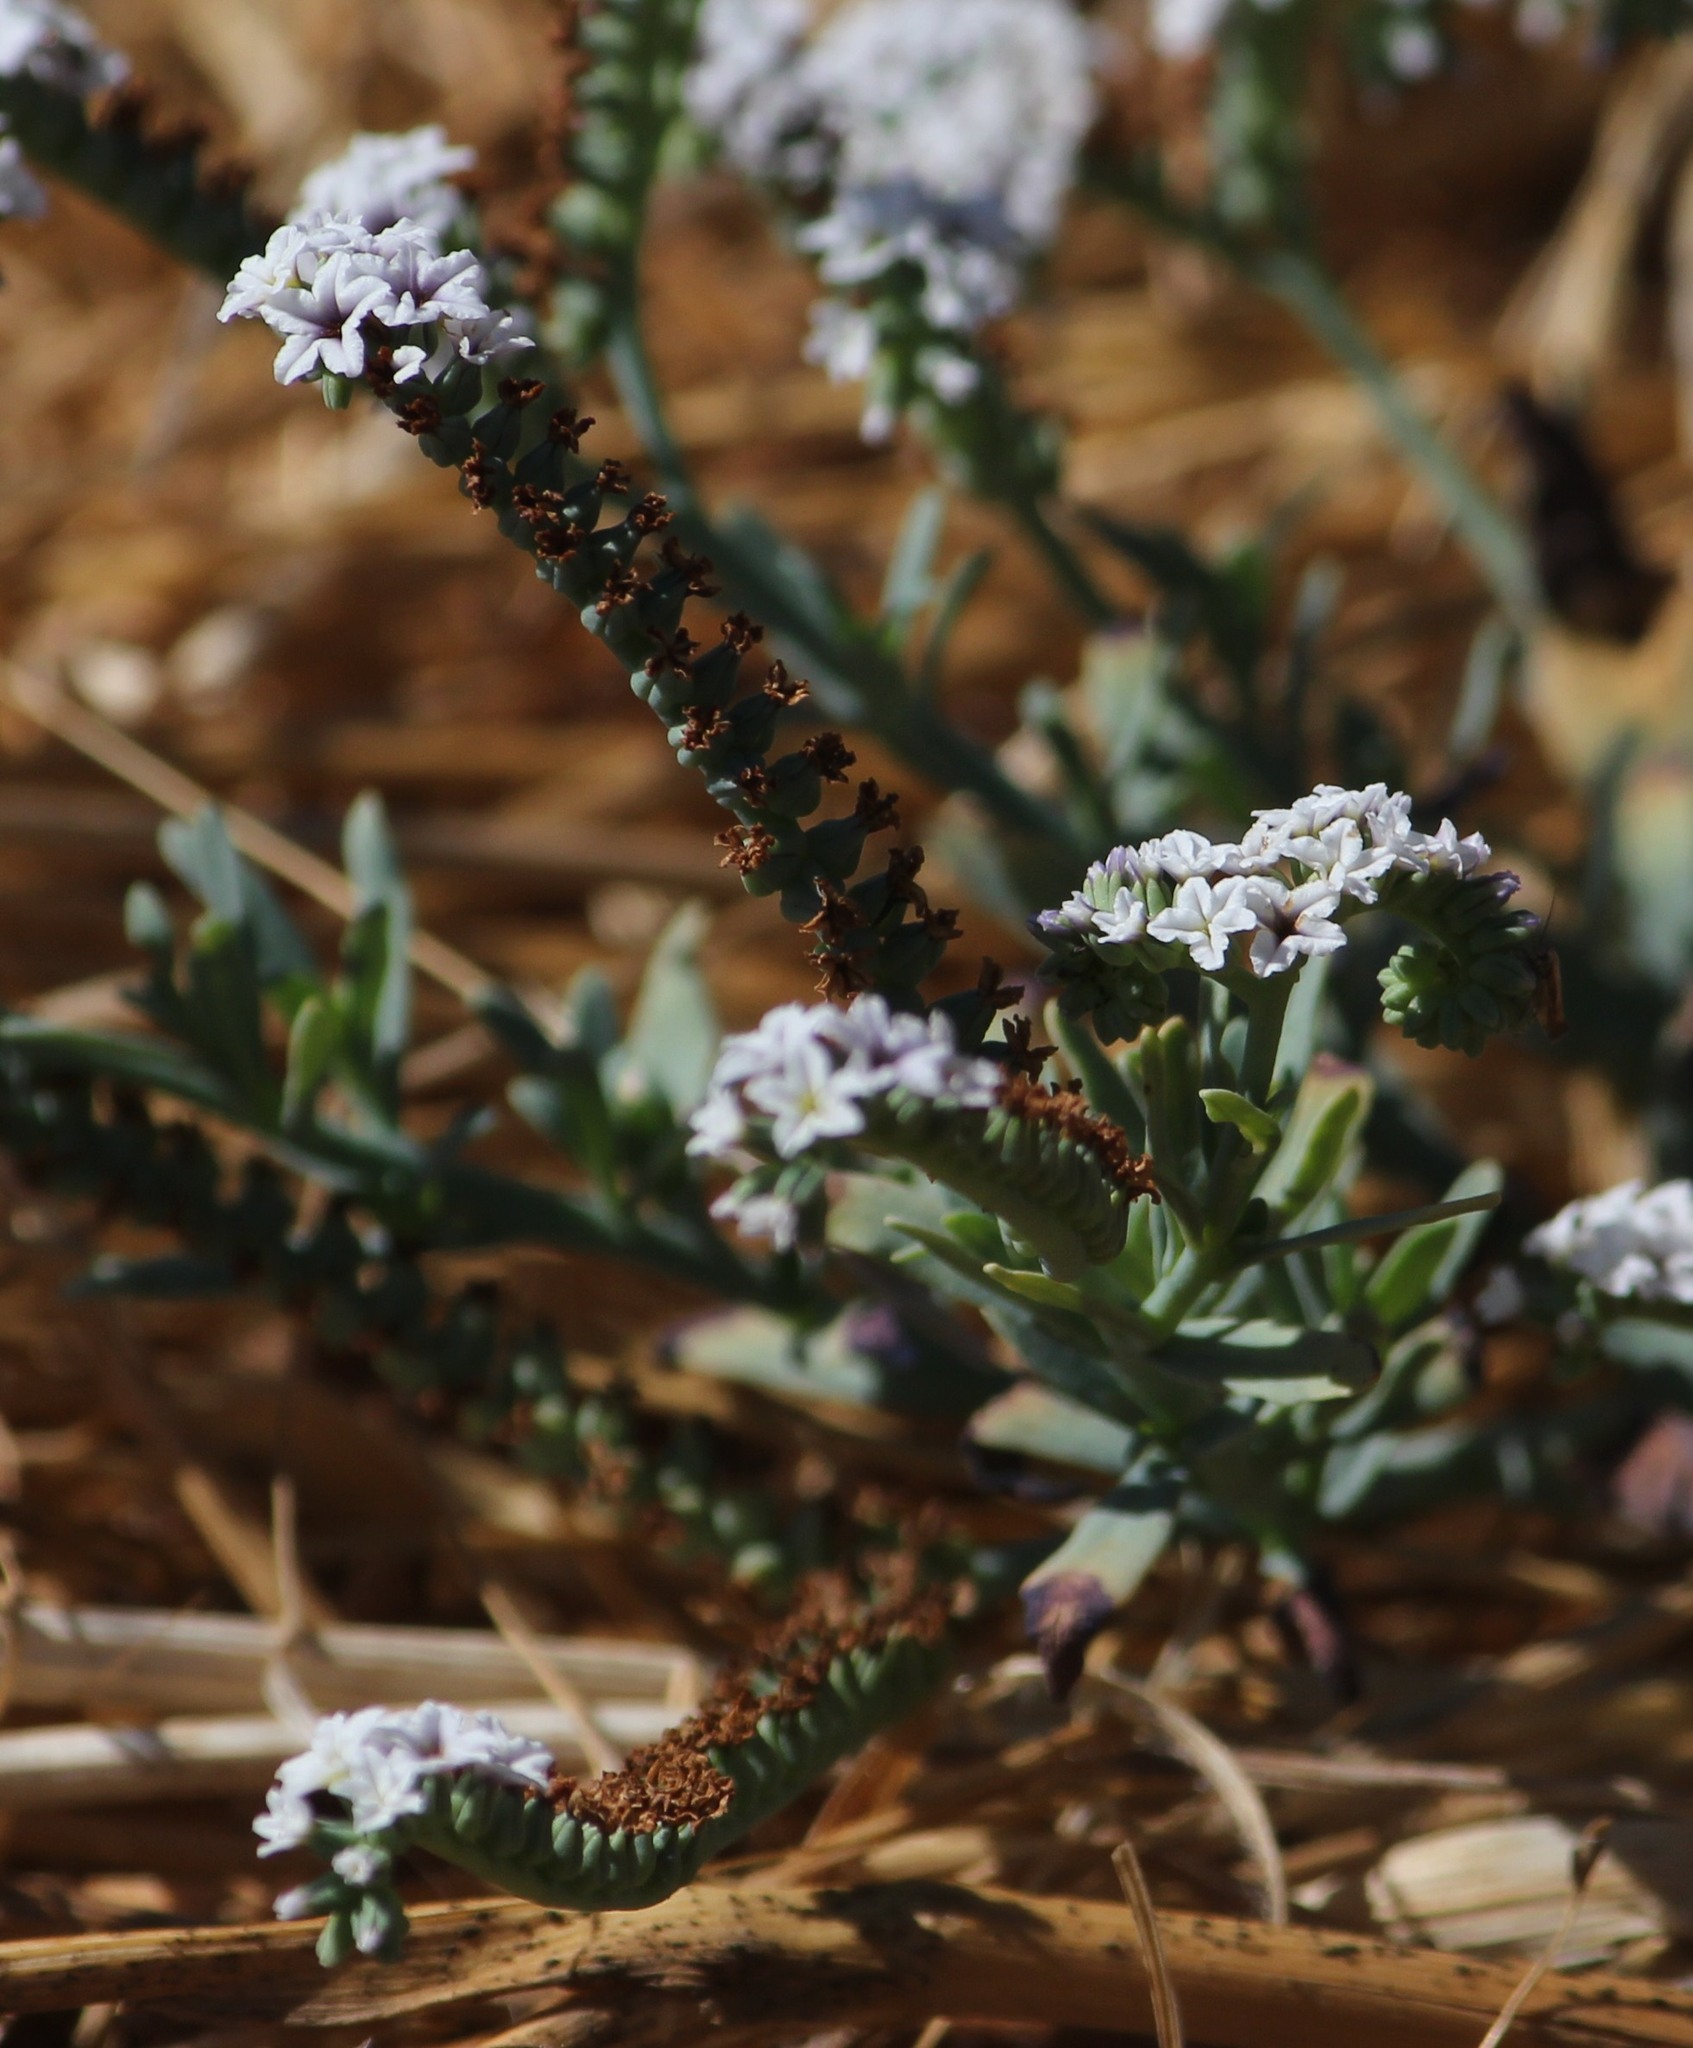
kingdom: Plantae
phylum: Tracheophyta
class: Magnoliopsida
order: Boraginales
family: Heliotropiaceae
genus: Heliotropium
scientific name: Heliotropium curassavicum
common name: Seaside heliotrope
